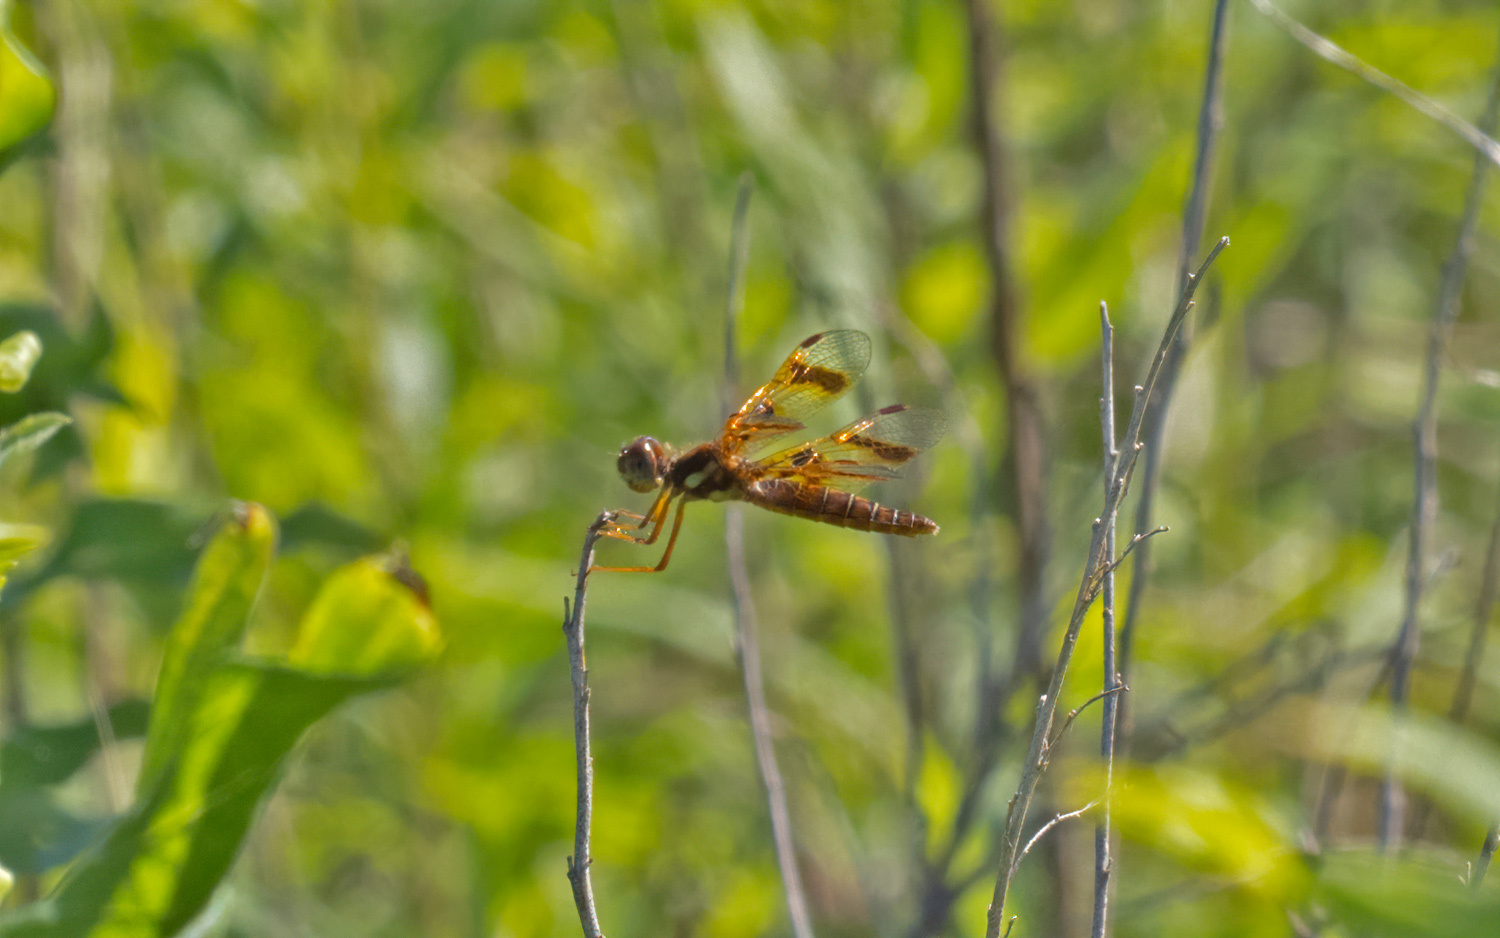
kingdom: Animalia
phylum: Arthropoda
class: Insecta
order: Odonata
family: Libellulidae
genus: Perithemis
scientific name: Perithemis tenera
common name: Eastern amberwing
